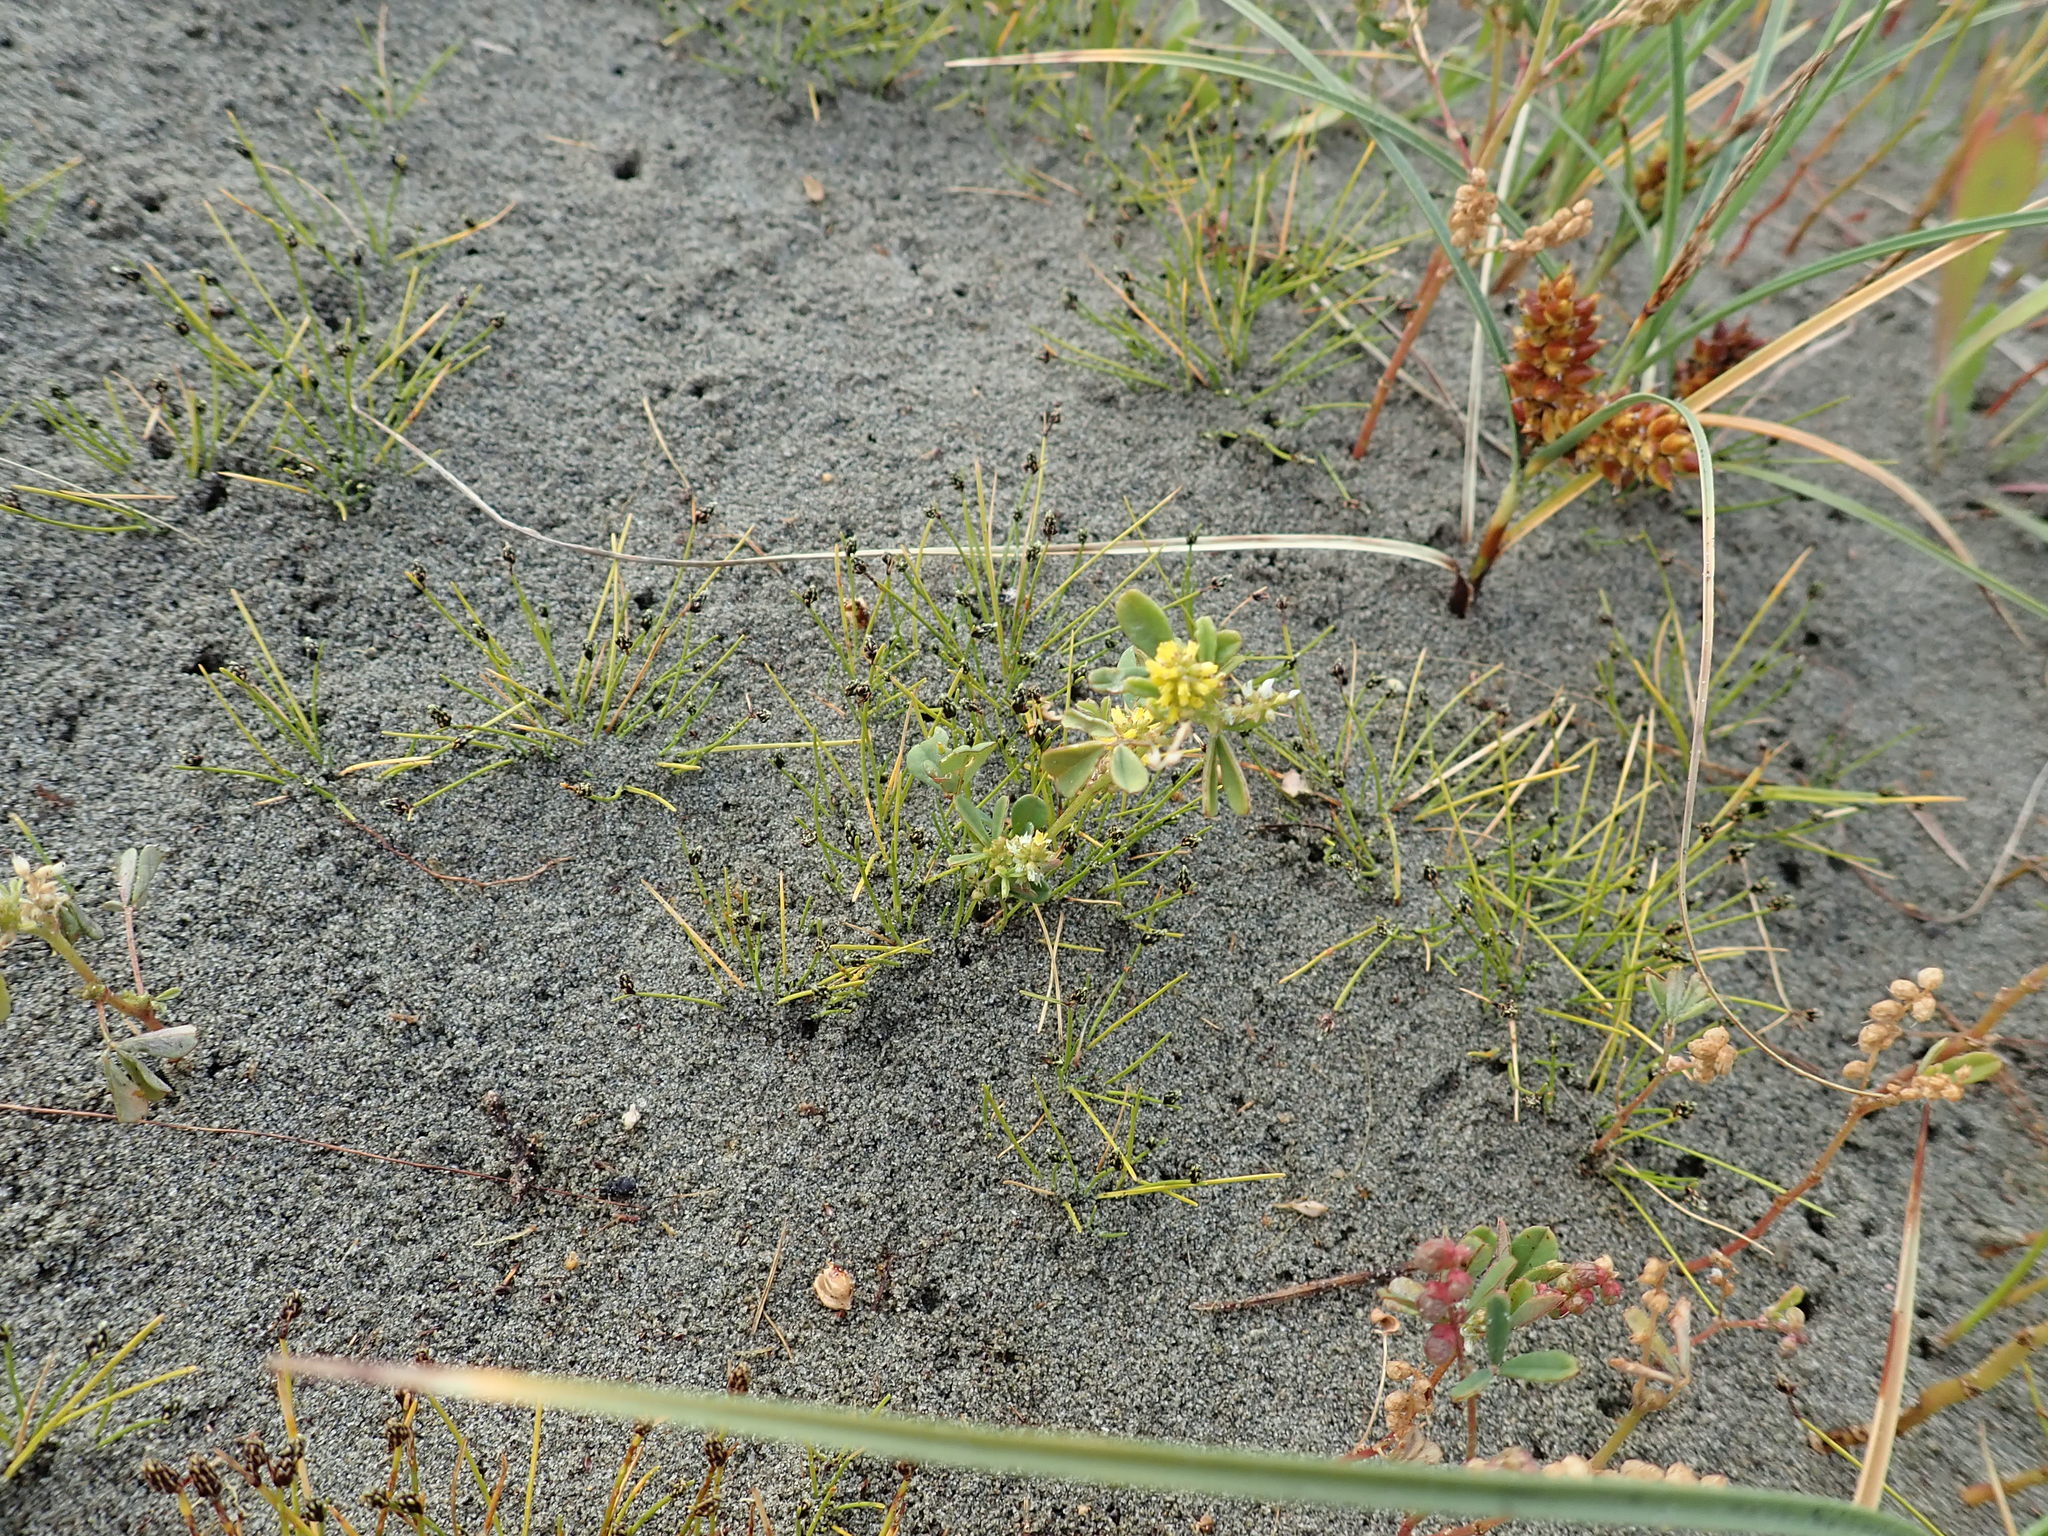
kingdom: Plantae
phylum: Tracheophyta
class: Magnoliopsida
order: Fabales
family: Fabaceae
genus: Melilotus
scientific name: Melilotus indicus
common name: Small melilot
